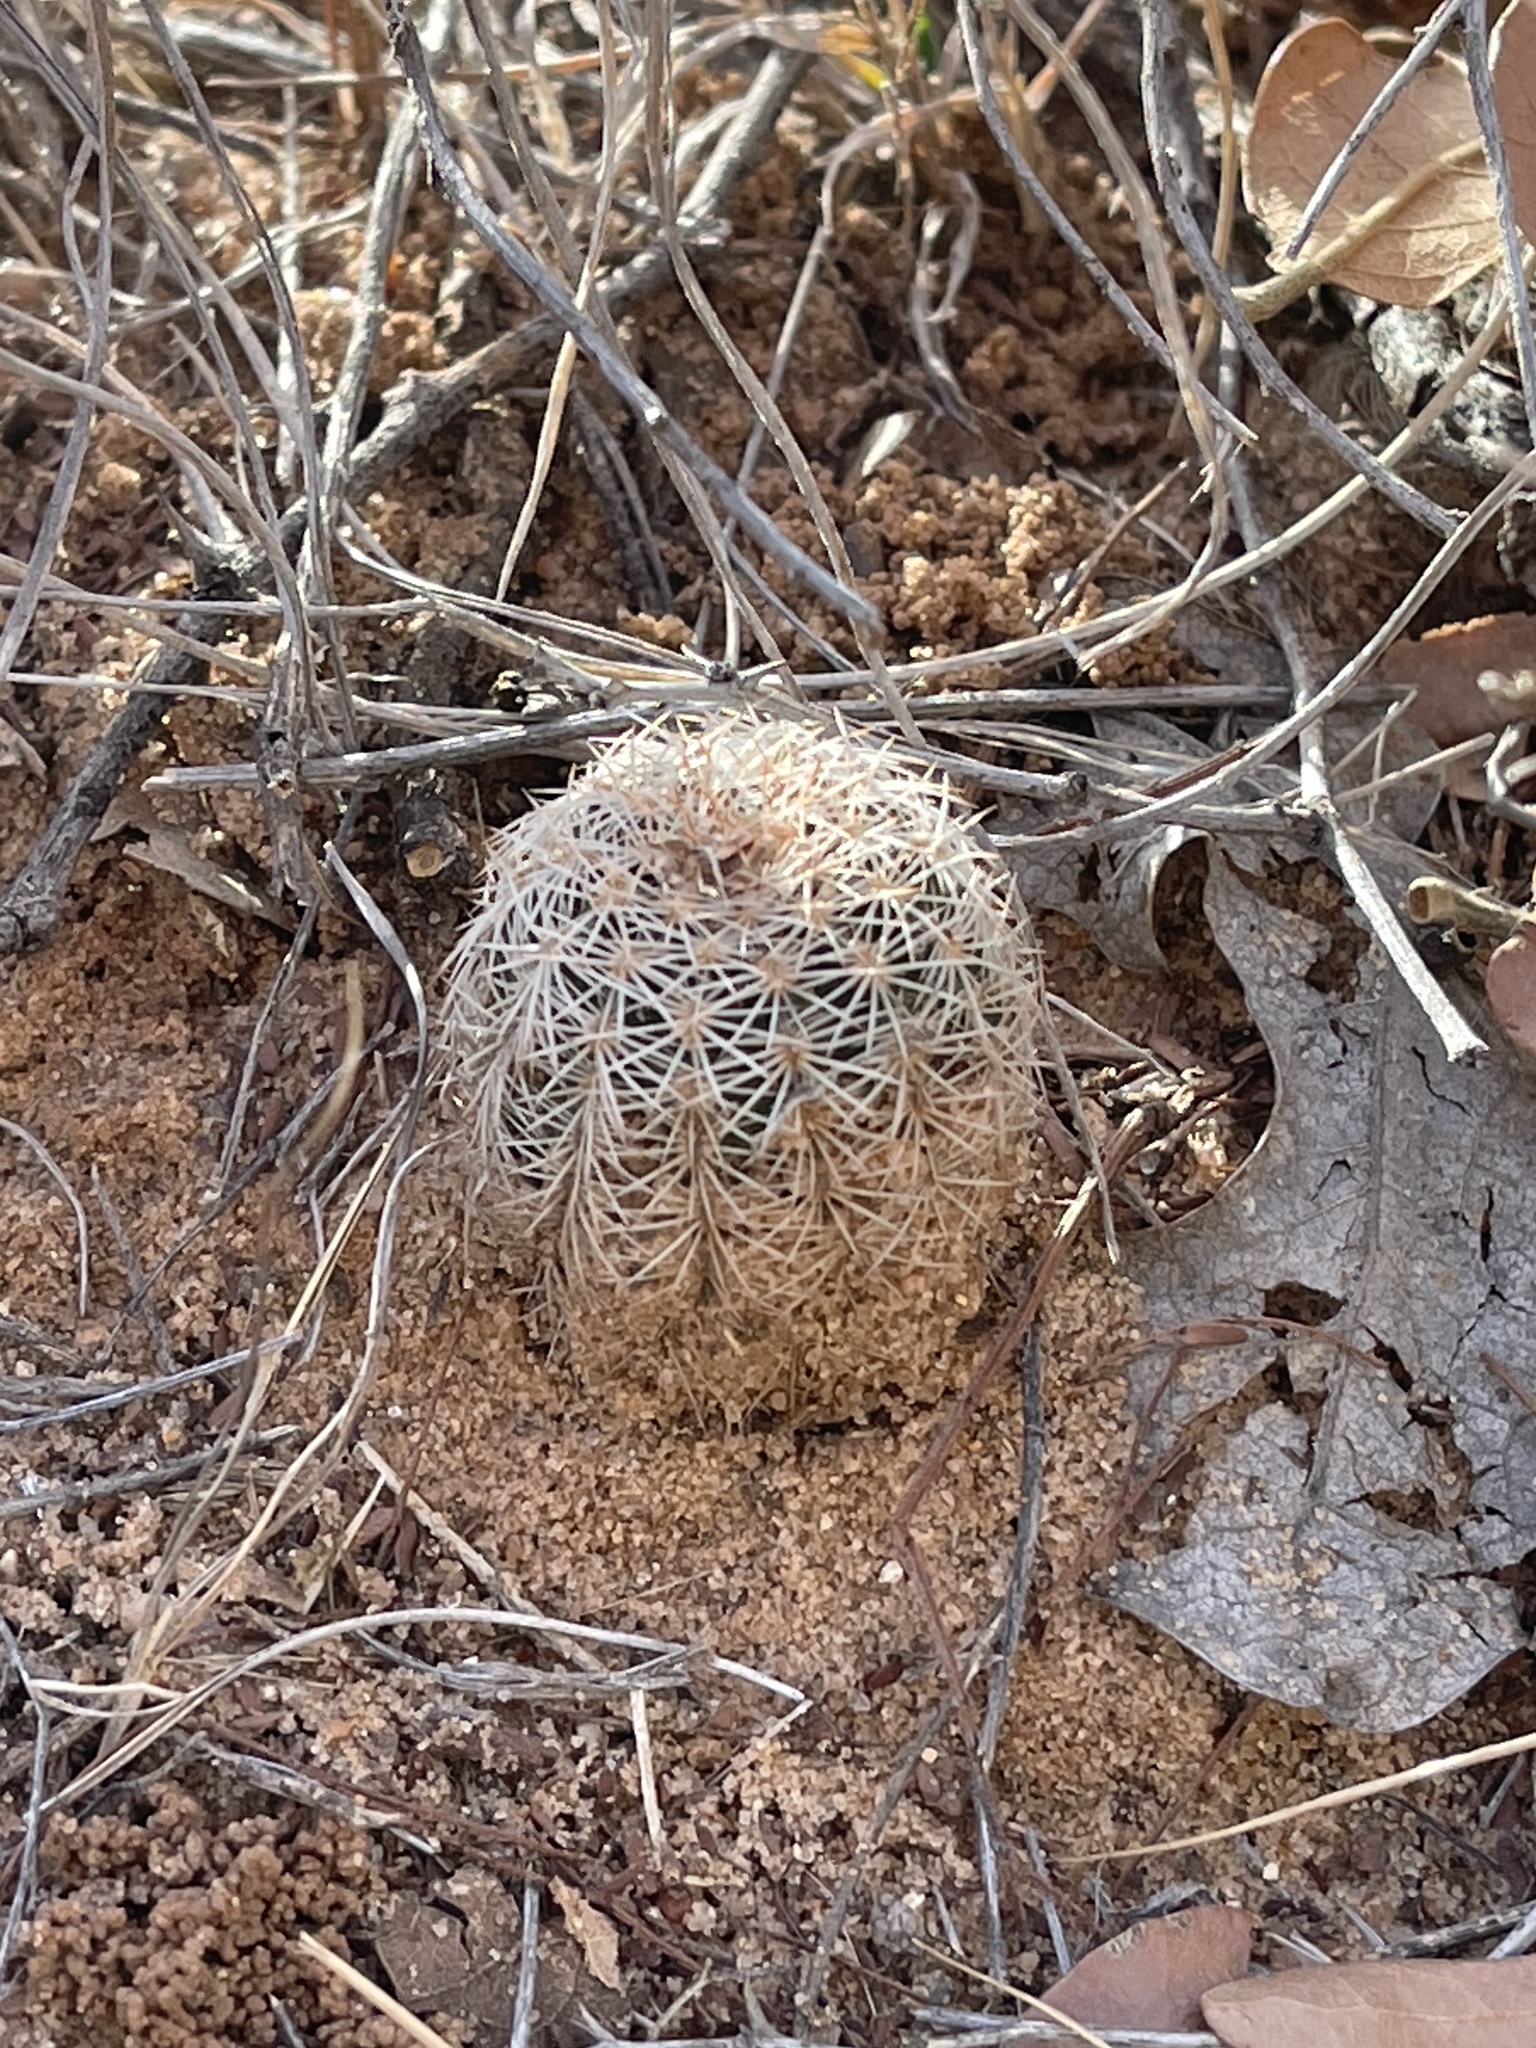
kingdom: Plantae
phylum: Tracheophyta
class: Magnoliopsida
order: Caryophyllales
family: Cactaceae
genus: Echinocereus
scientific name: Echinocereus reichenbachii
